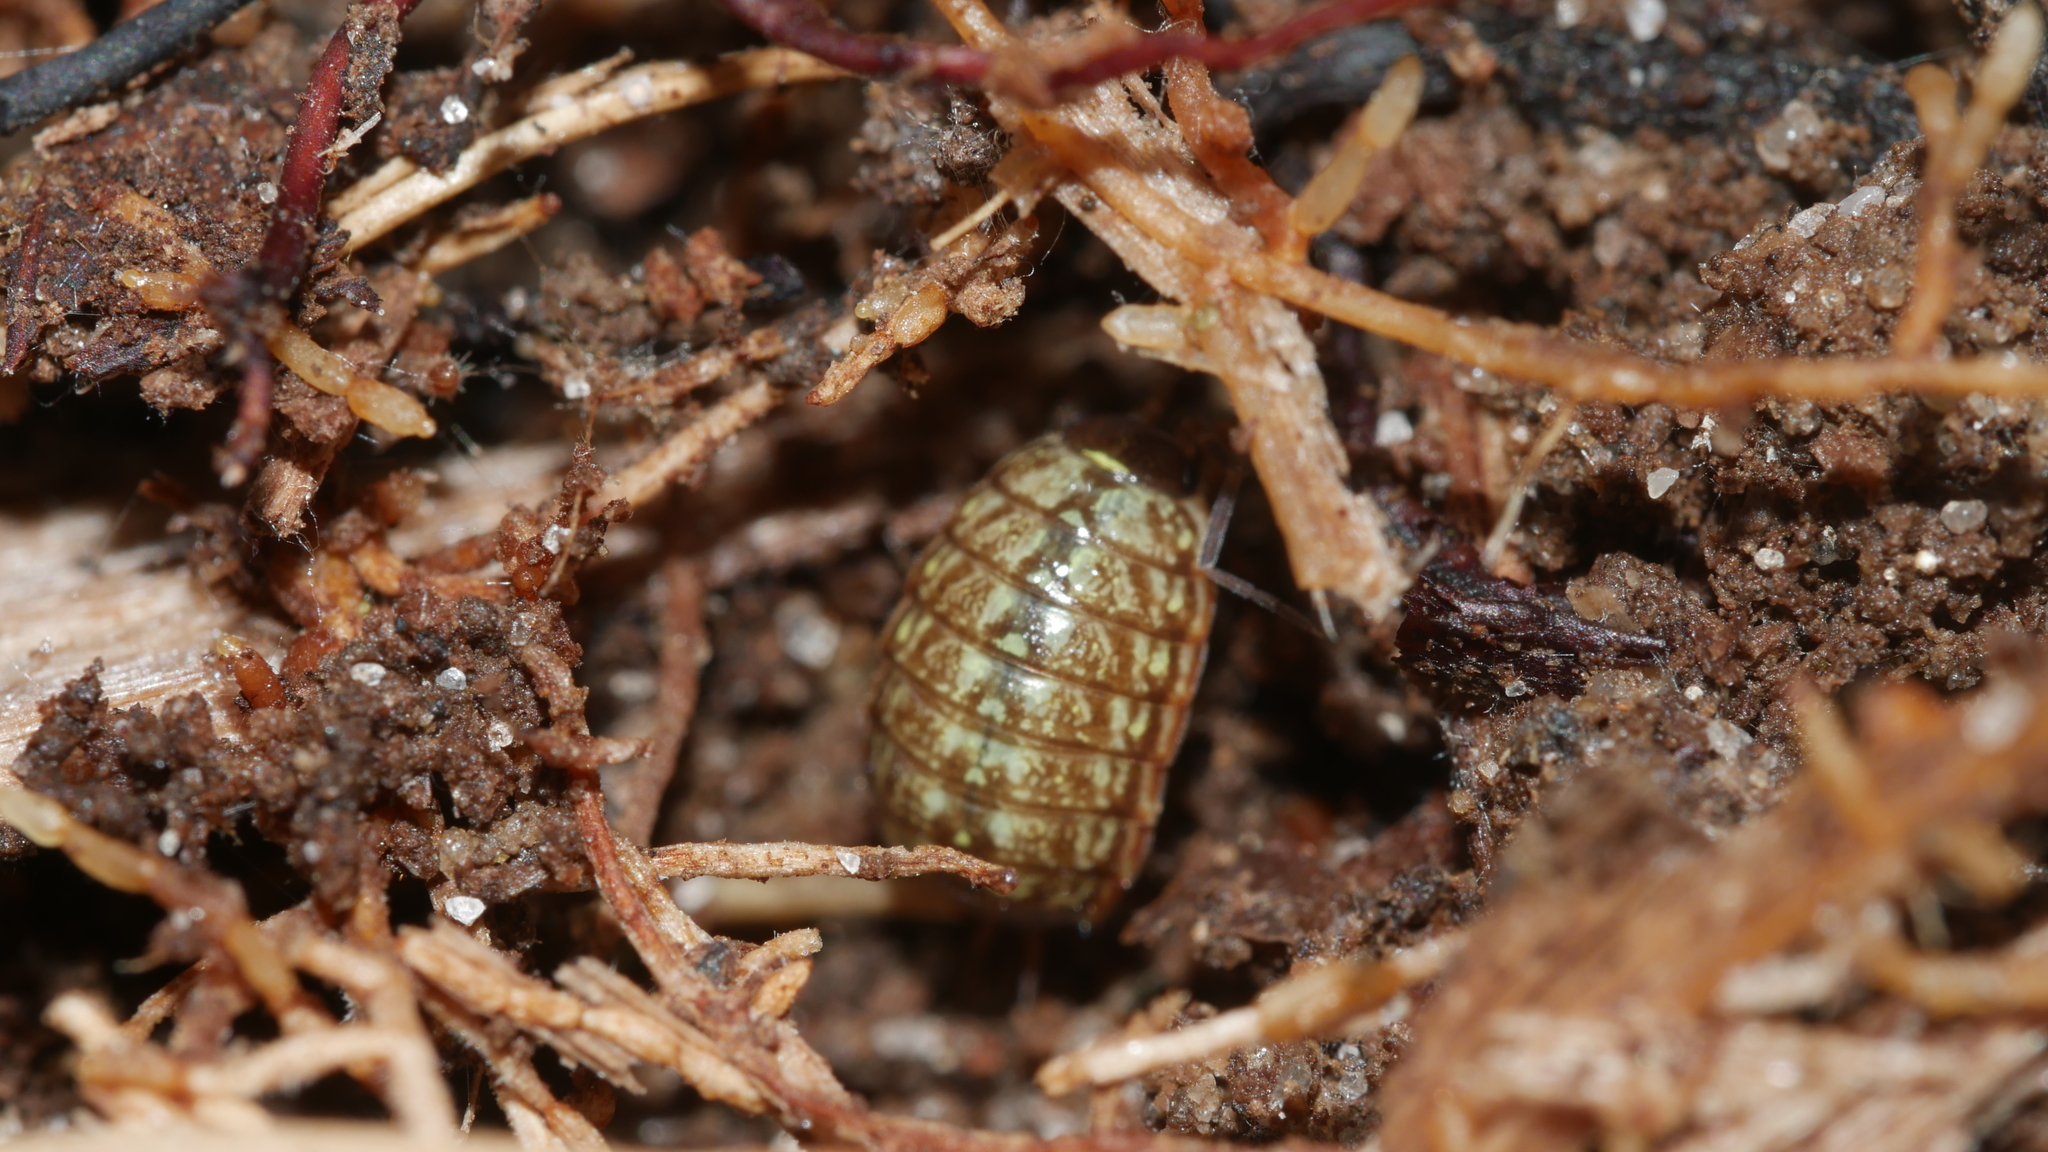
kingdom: Animalia
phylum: Arthropoda
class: Malacostraca
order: Isopoda
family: Philosciidae
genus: Philoscia
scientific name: Philoscia muscorum
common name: Common striped woodlouse
